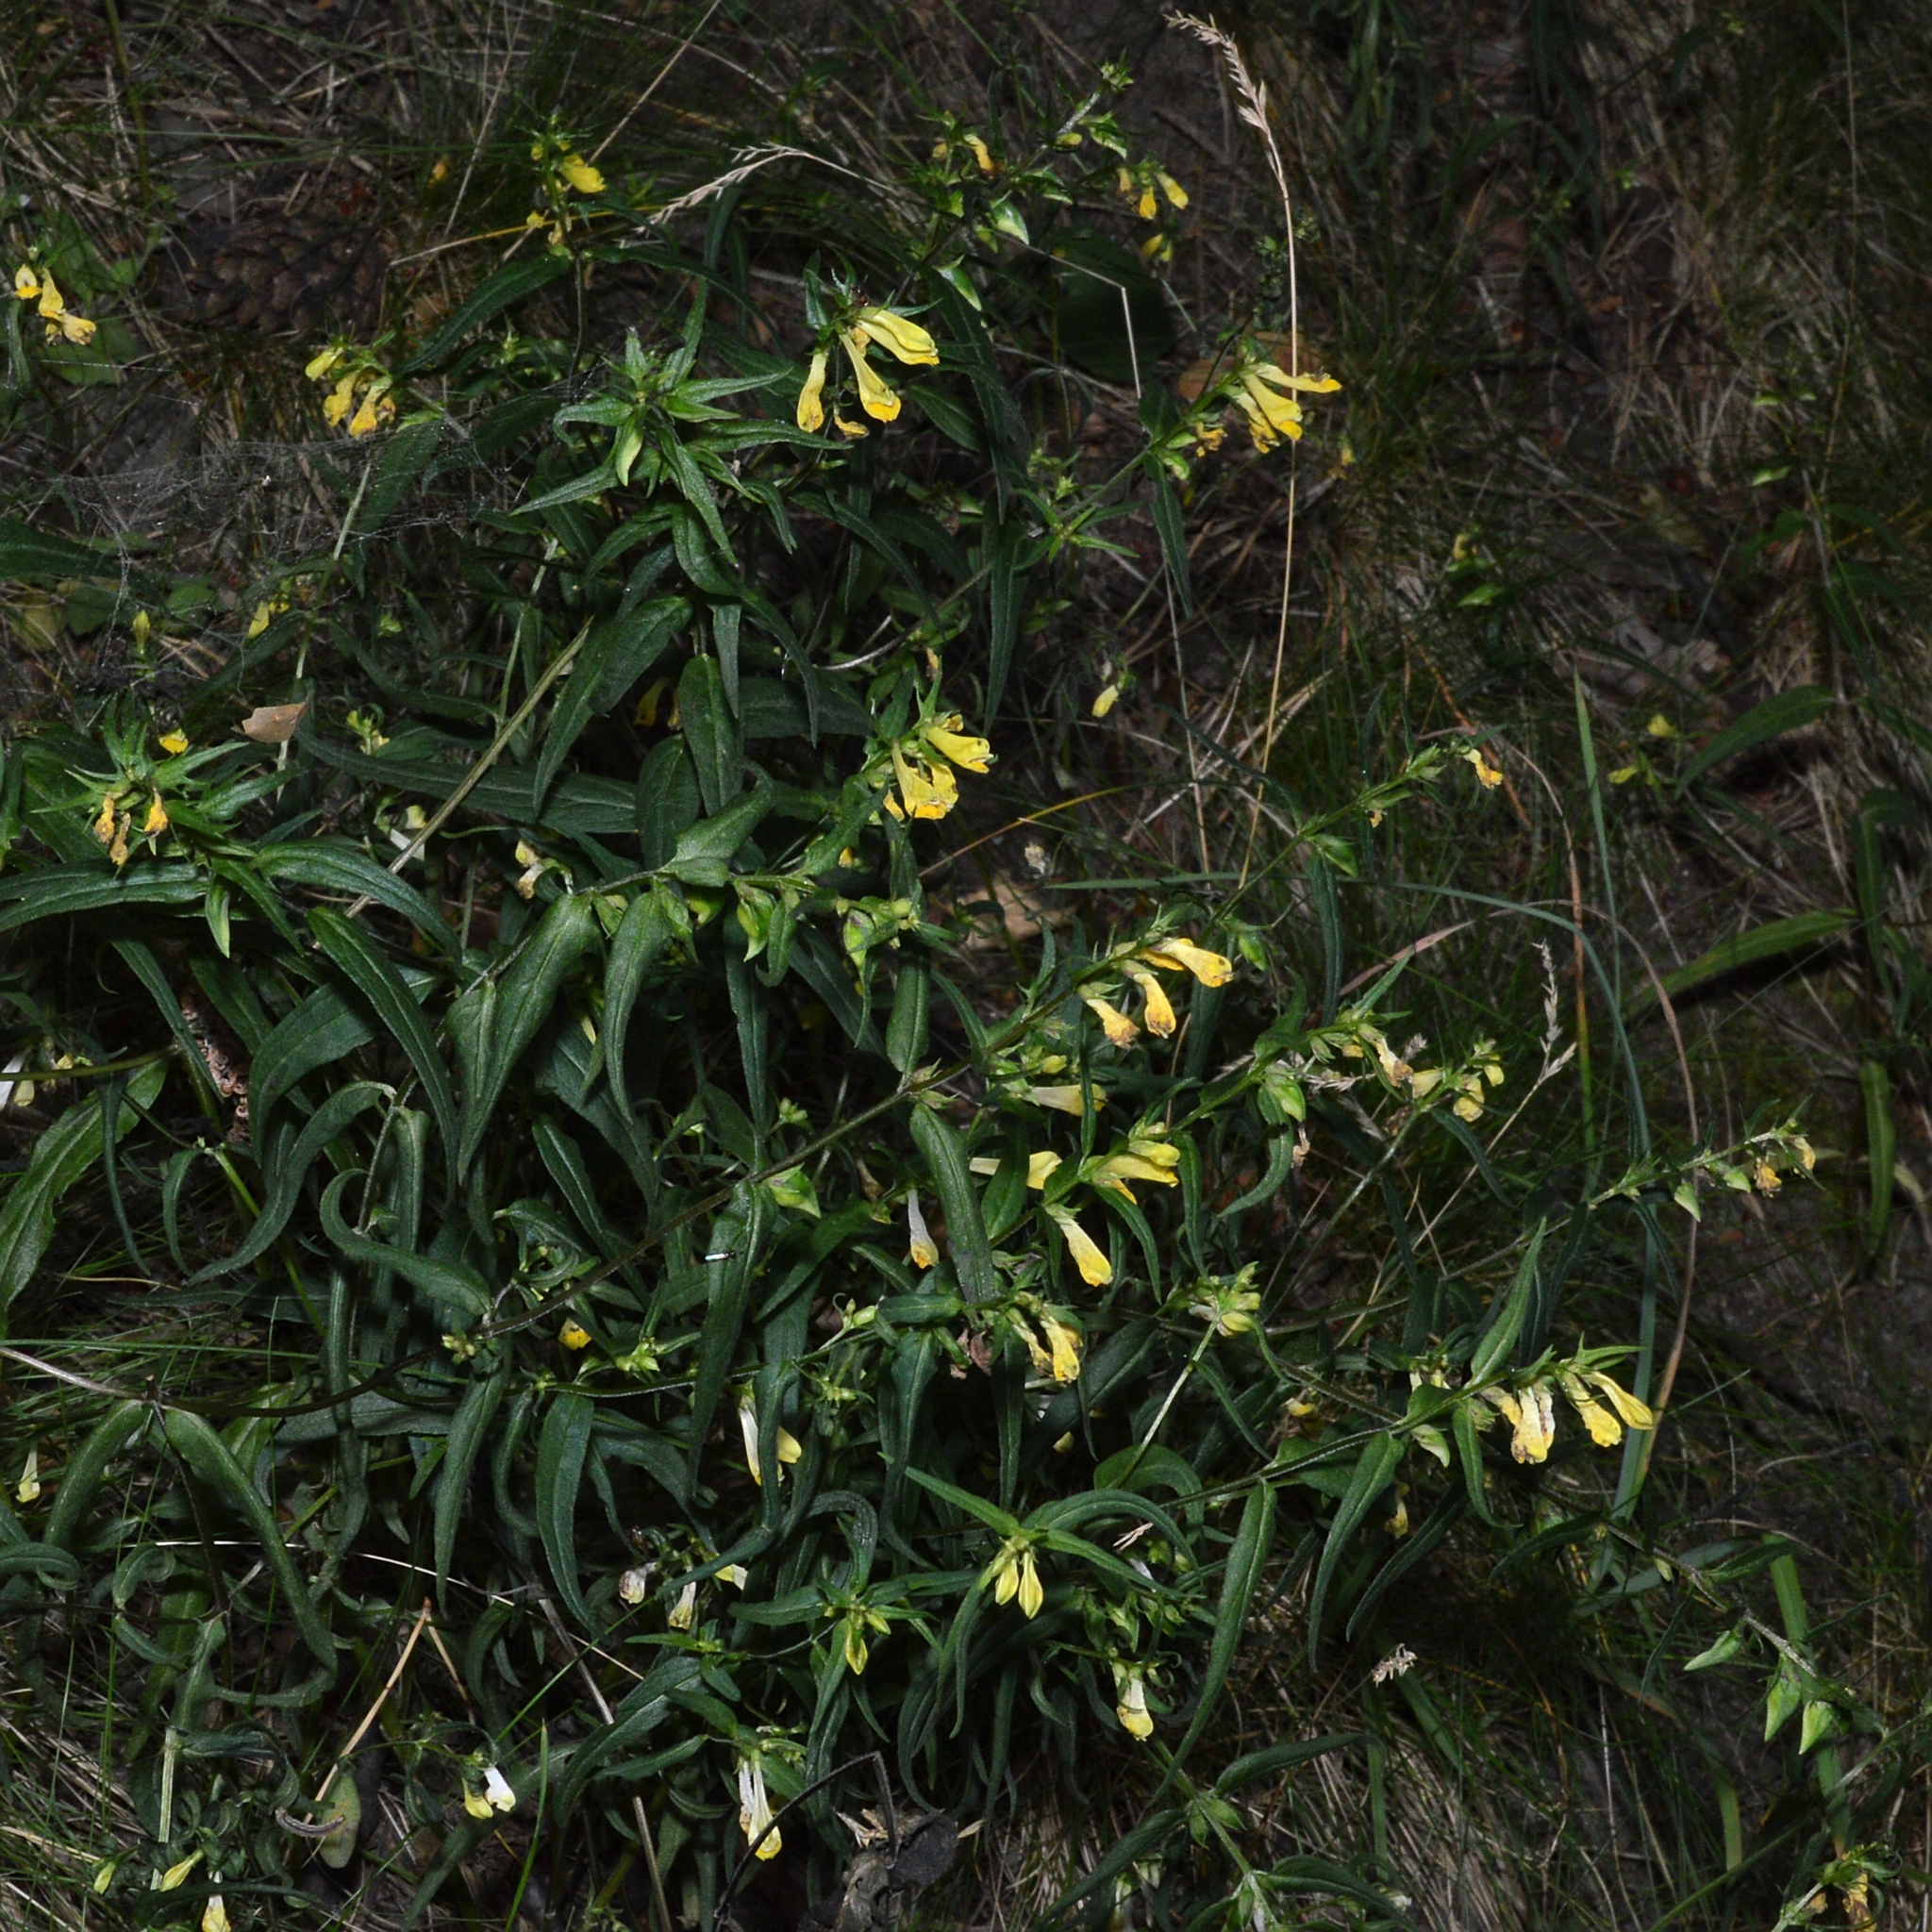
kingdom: Plantae
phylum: Tracheophyta
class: Magnoliopsida
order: Lamiales
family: Orobanchaceae
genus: Melampyrum
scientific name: Melampyrum pratense
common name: Common cow-wheat
